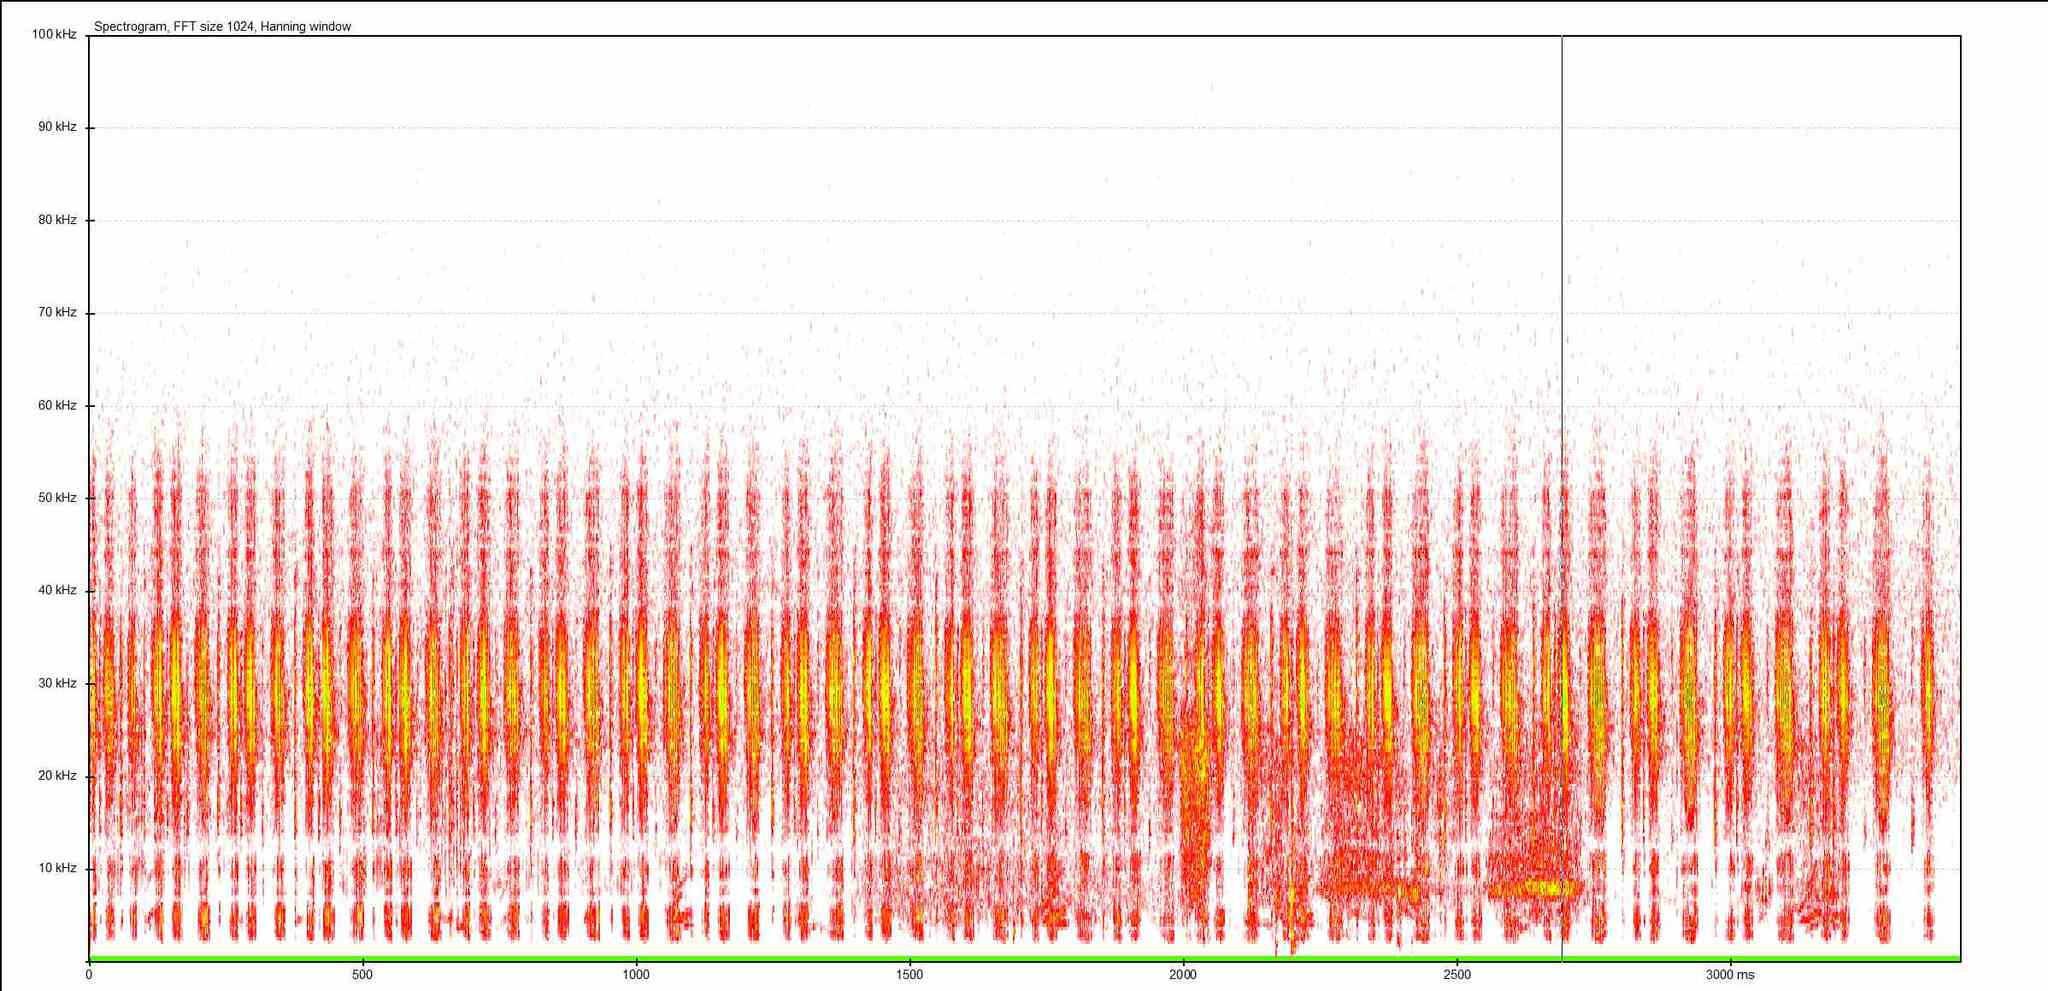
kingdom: Animalia
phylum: Arthropoda
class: Insecta
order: Orthoptera
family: Tettigoniidae
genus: Conocephalus
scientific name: Conocephalus fuscus
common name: Long-winged conehead
